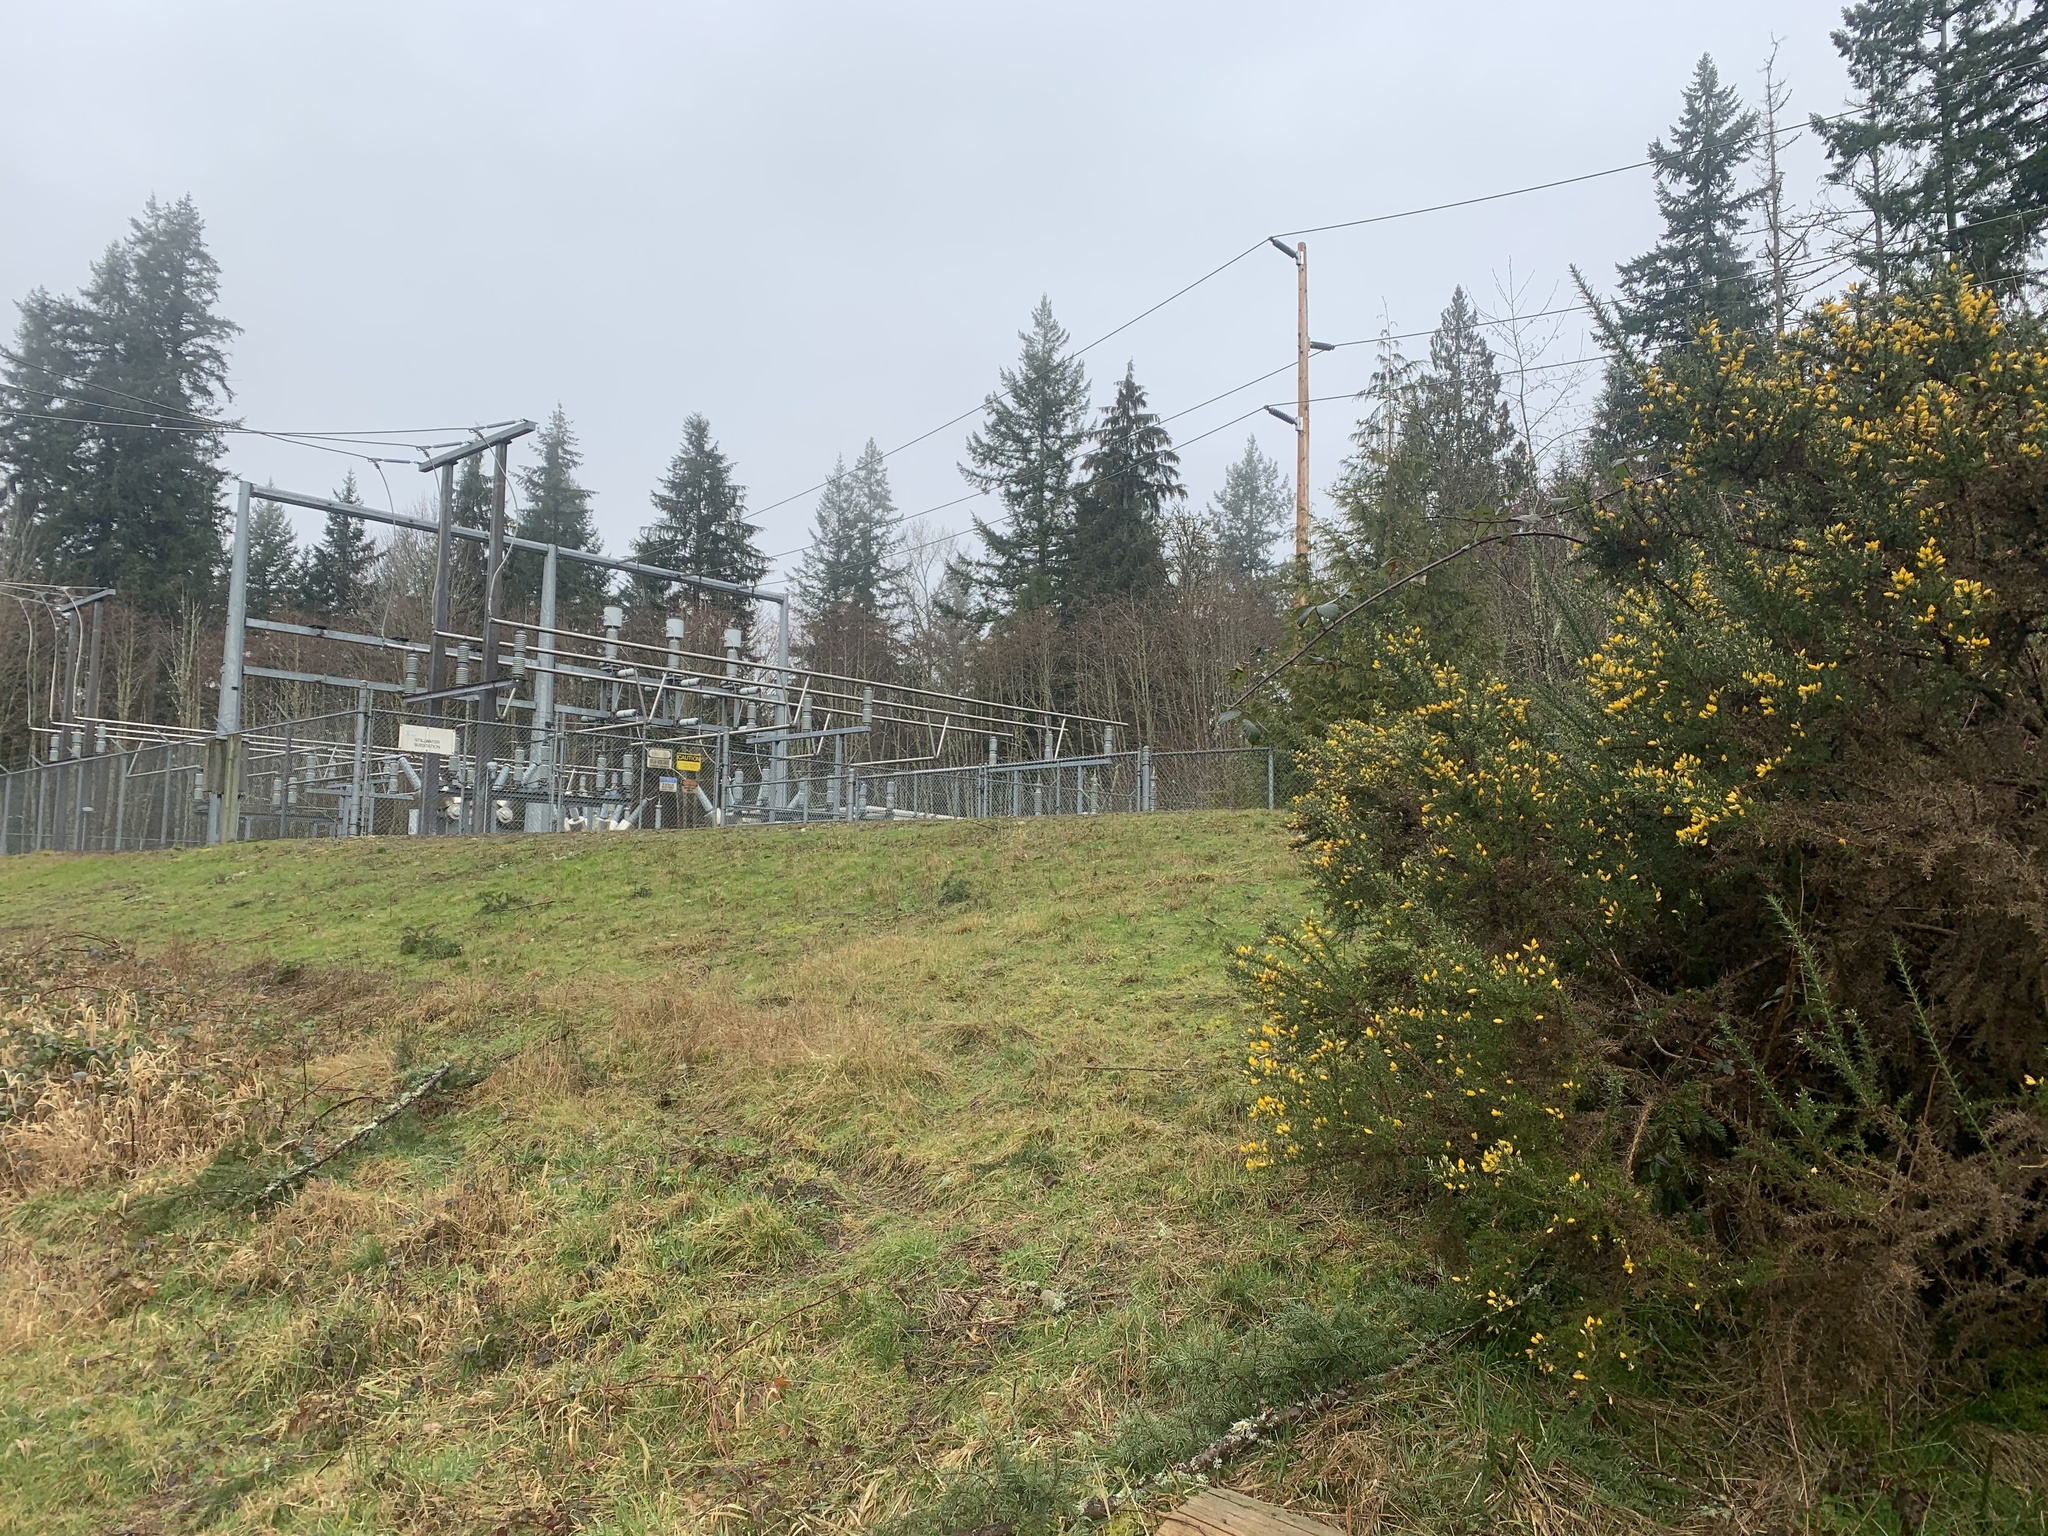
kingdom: Plantae
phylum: Tracheophyta
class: Magnoliopsida
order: Fabales
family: Fabaceae
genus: Ulex
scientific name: Ulex europaeus
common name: Common gorse
